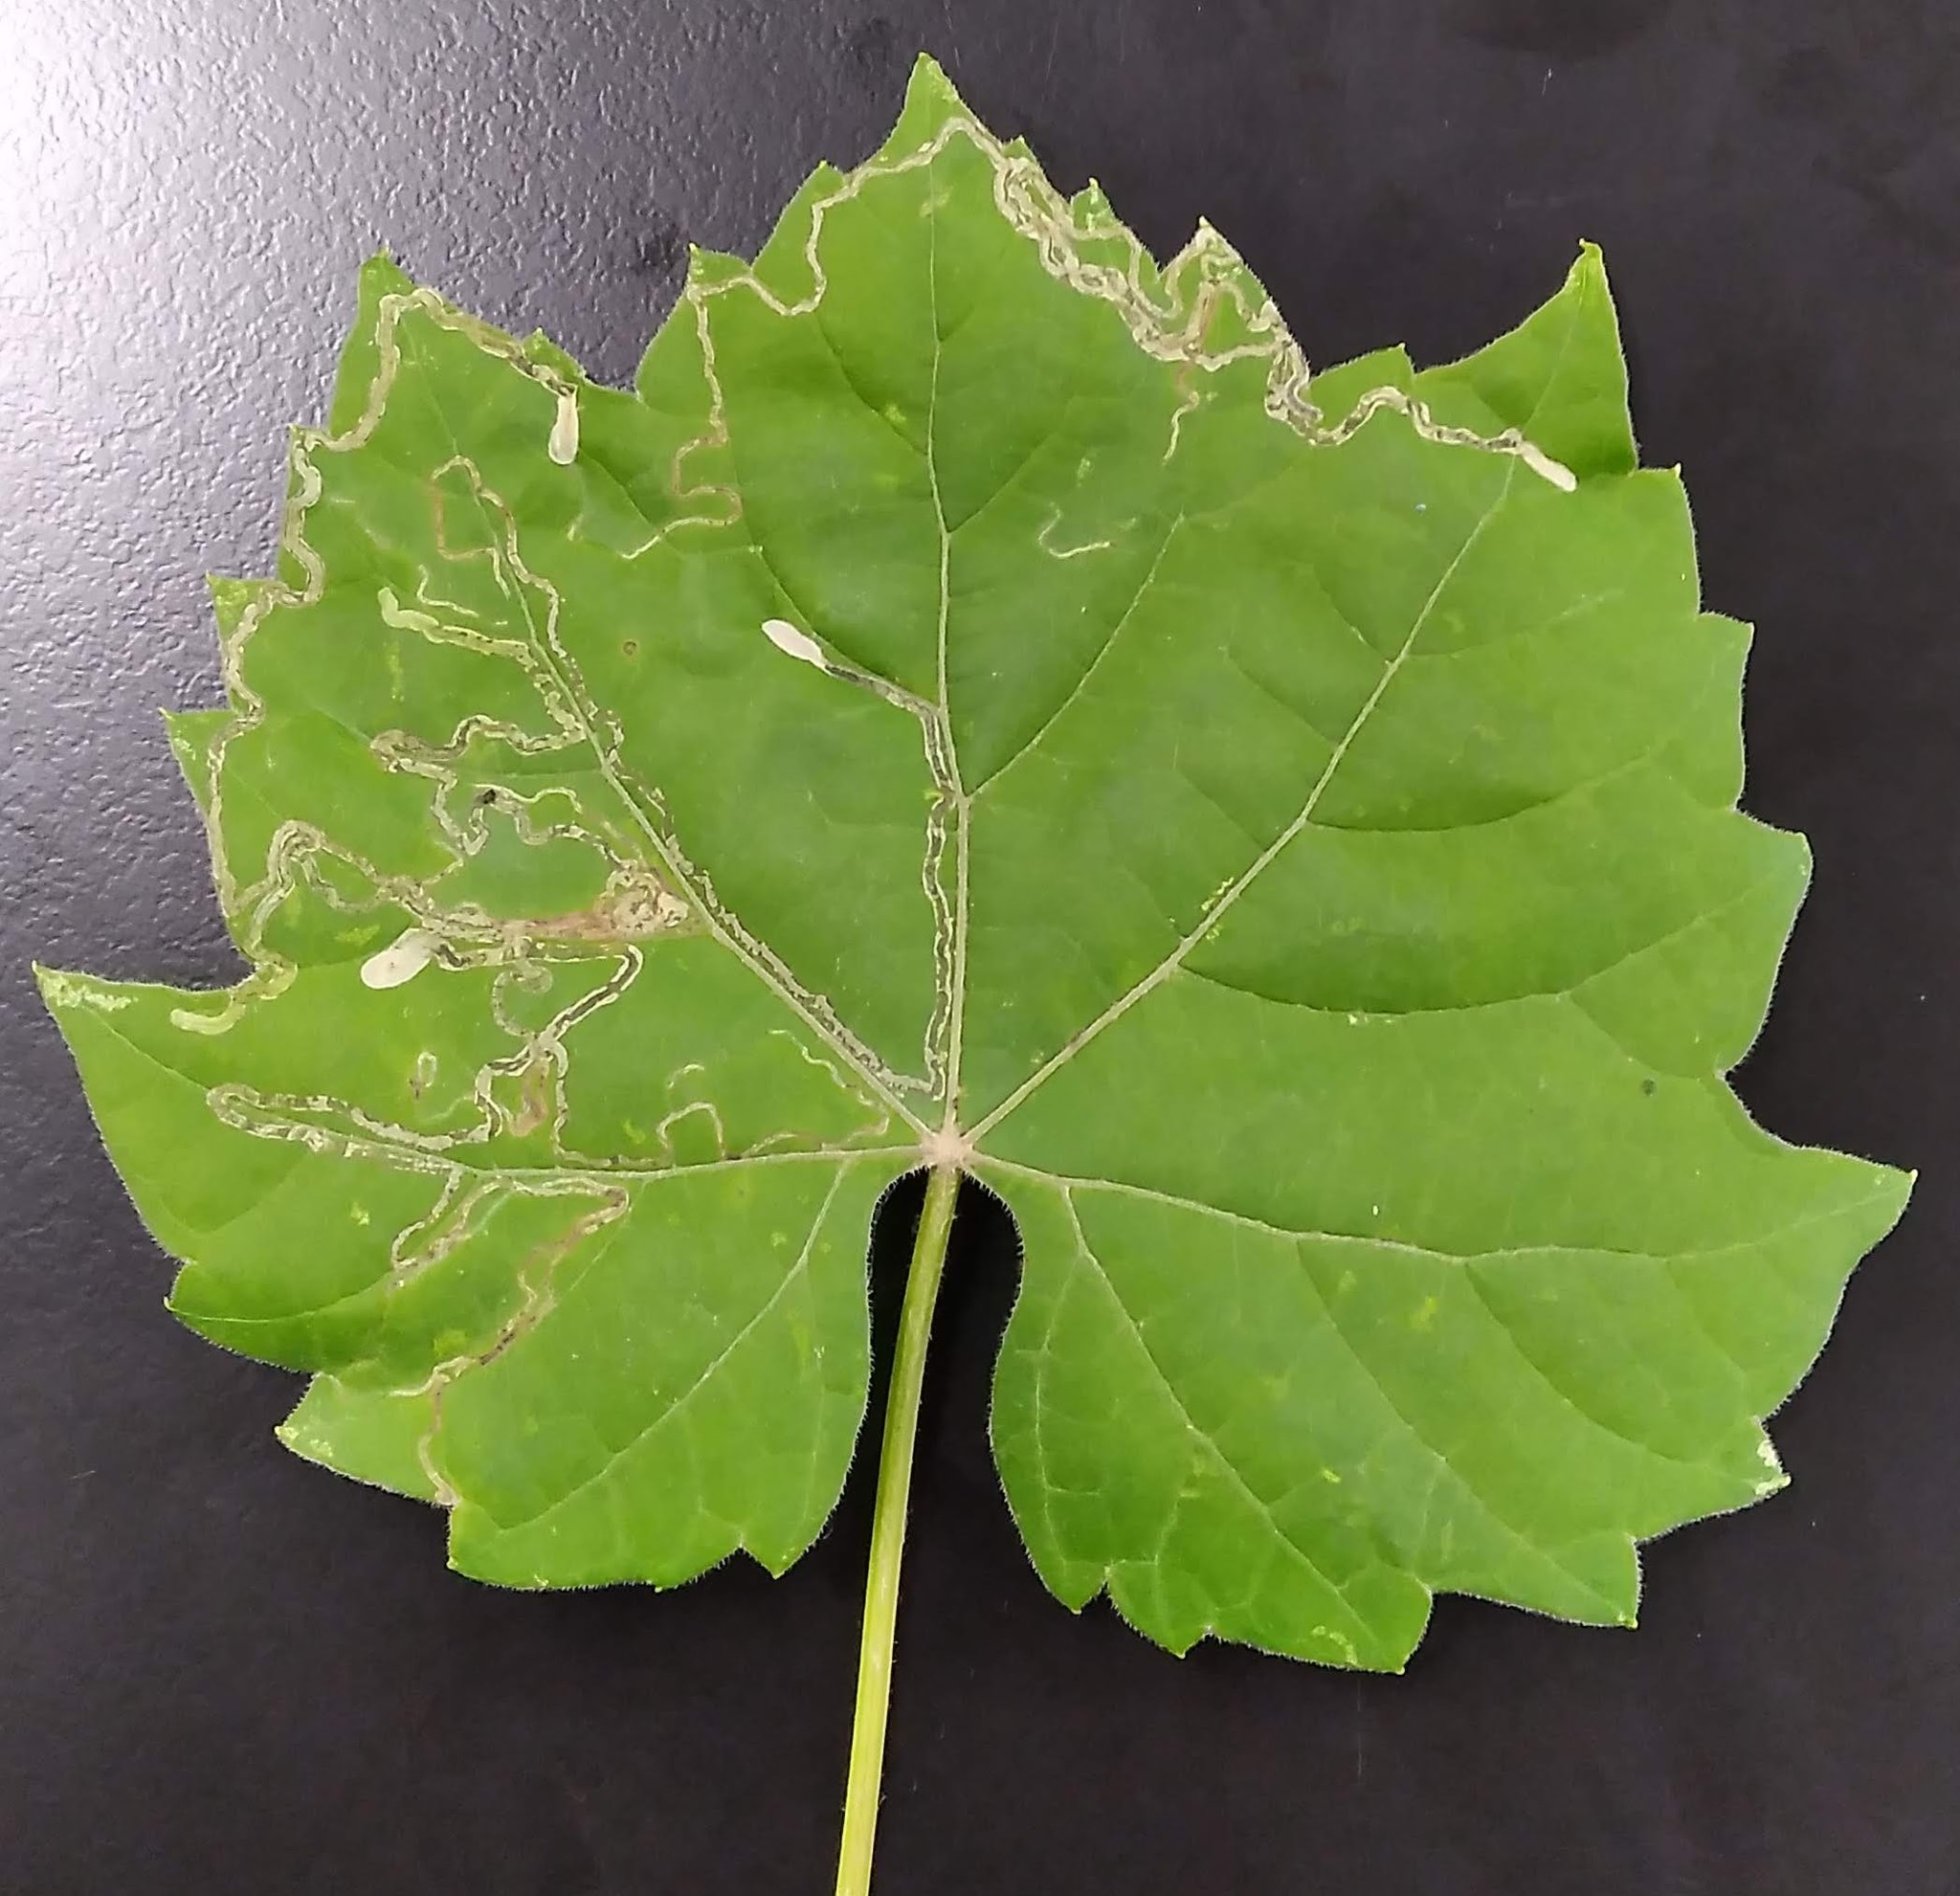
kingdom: Animalia
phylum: Arthropoda
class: Insecta
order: Lepidoptera
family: Gracillariidae
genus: Phyllocnistis
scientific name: Phyllocnistis vitifoliella
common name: Grape leaf-miner moth
